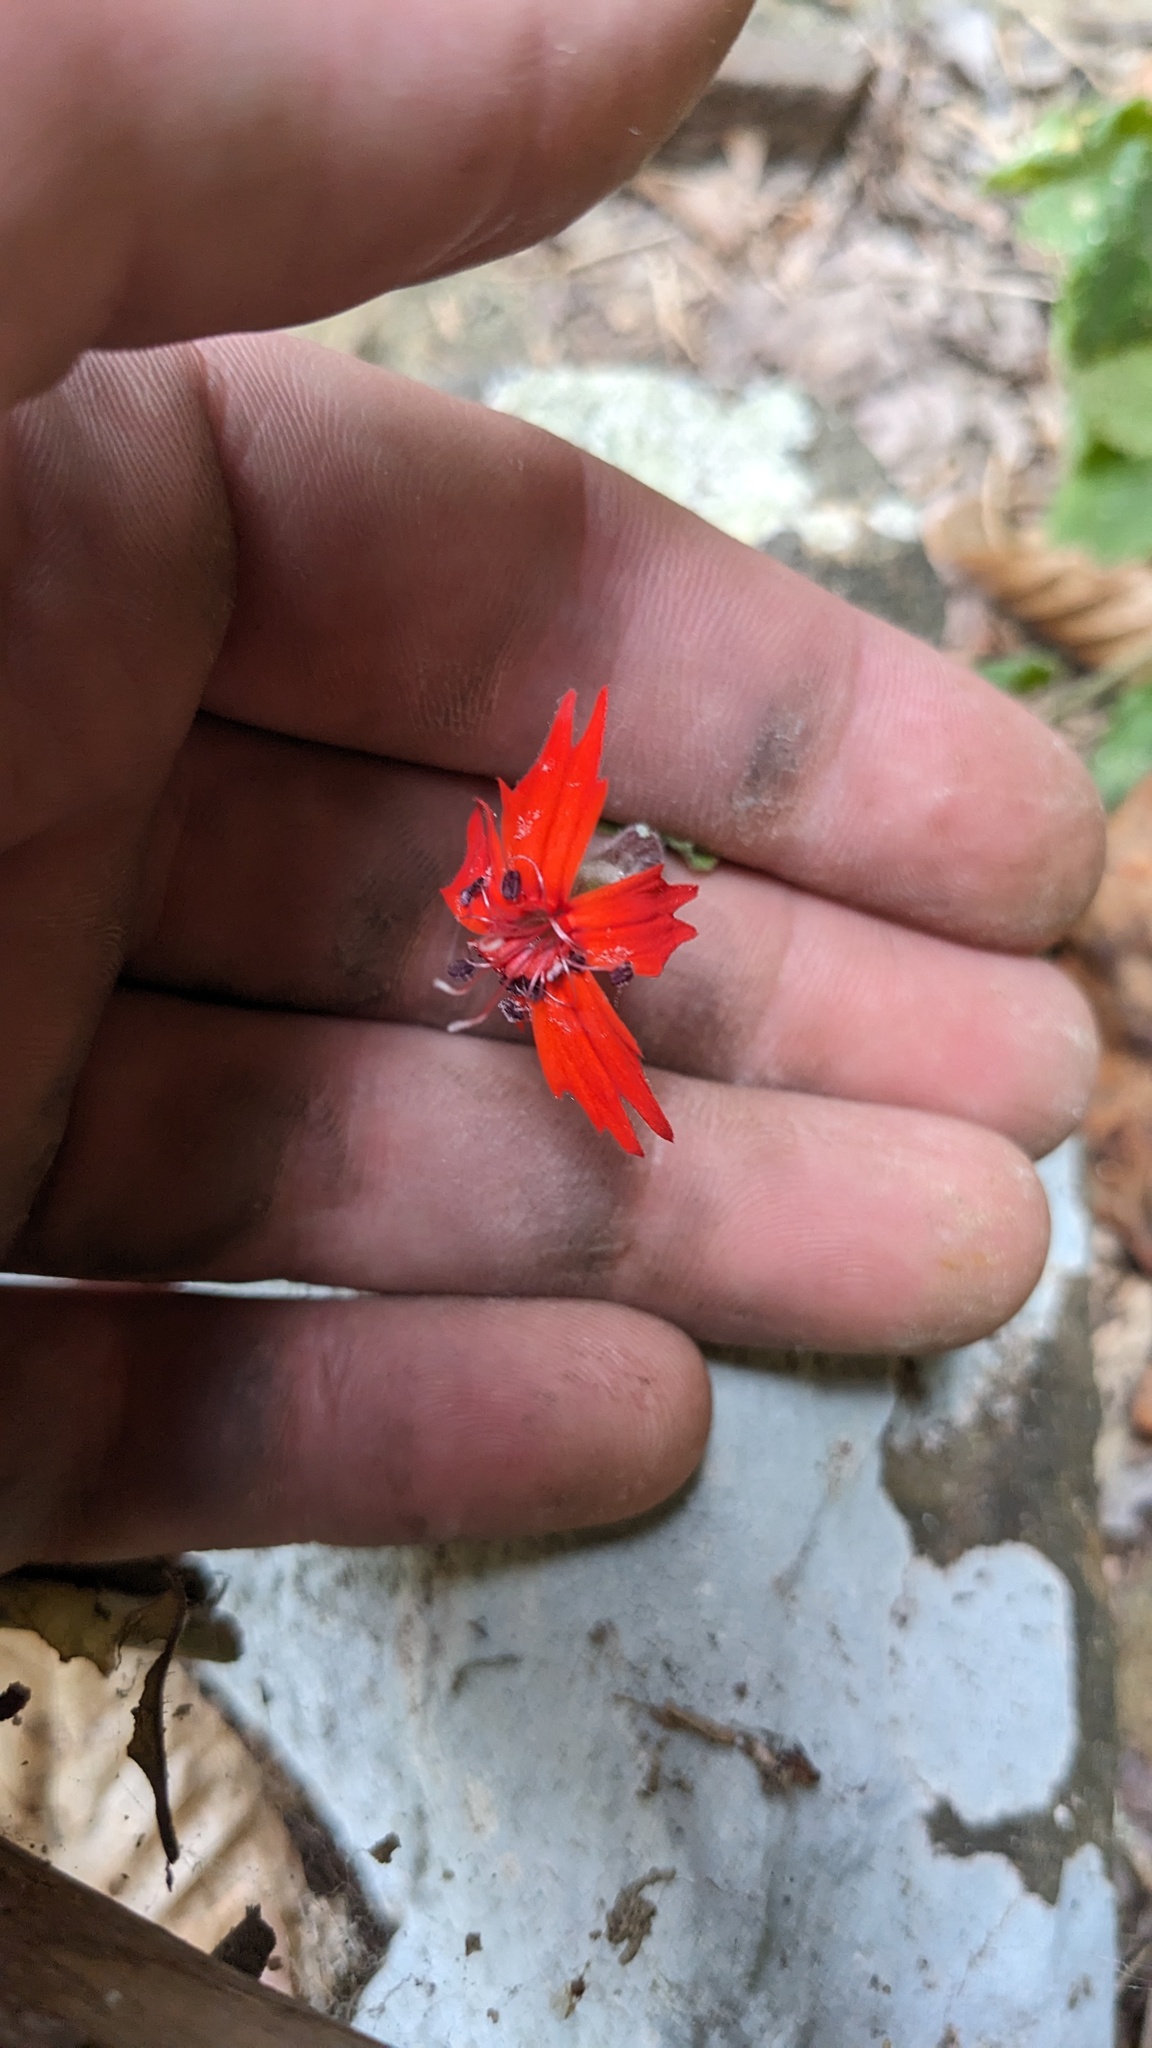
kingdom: Plantae
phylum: Tracheophyta
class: Magnoliopsida
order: Caryophyllales
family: Caryophyllaceae
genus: Silene
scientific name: Silene rotundifolia
